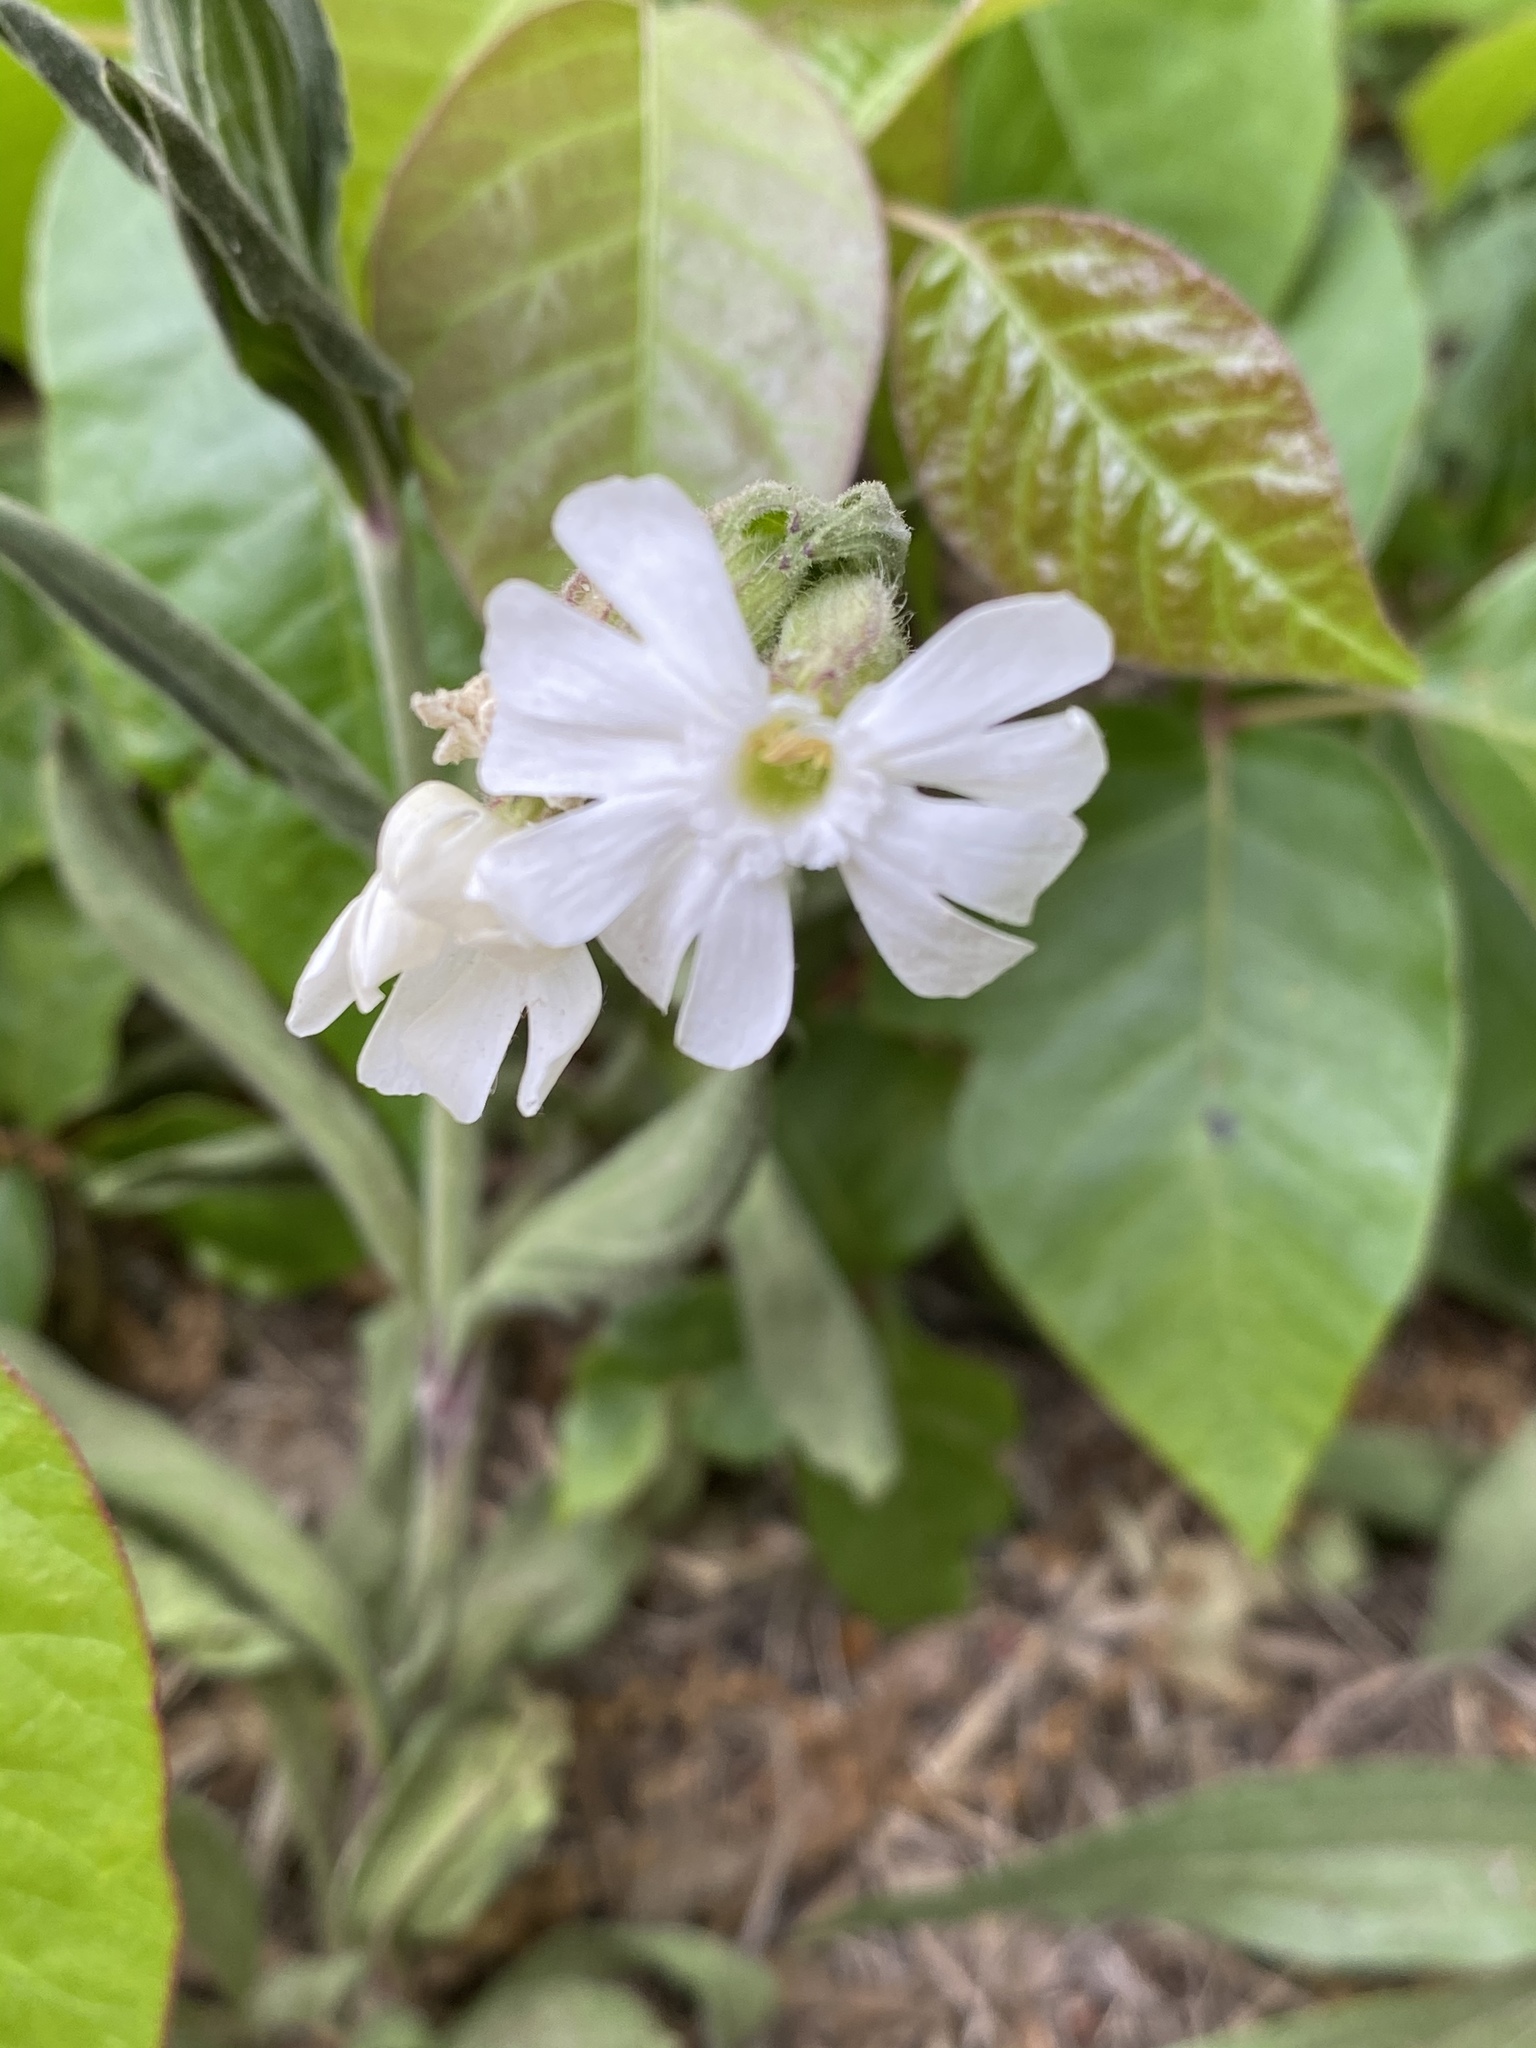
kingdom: Plantae
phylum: Tracheophyta
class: Magnoliopsida
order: Caryophyllales
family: Caryophyllaceae
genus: Silene
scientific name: Silene latifolia
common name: White campion
